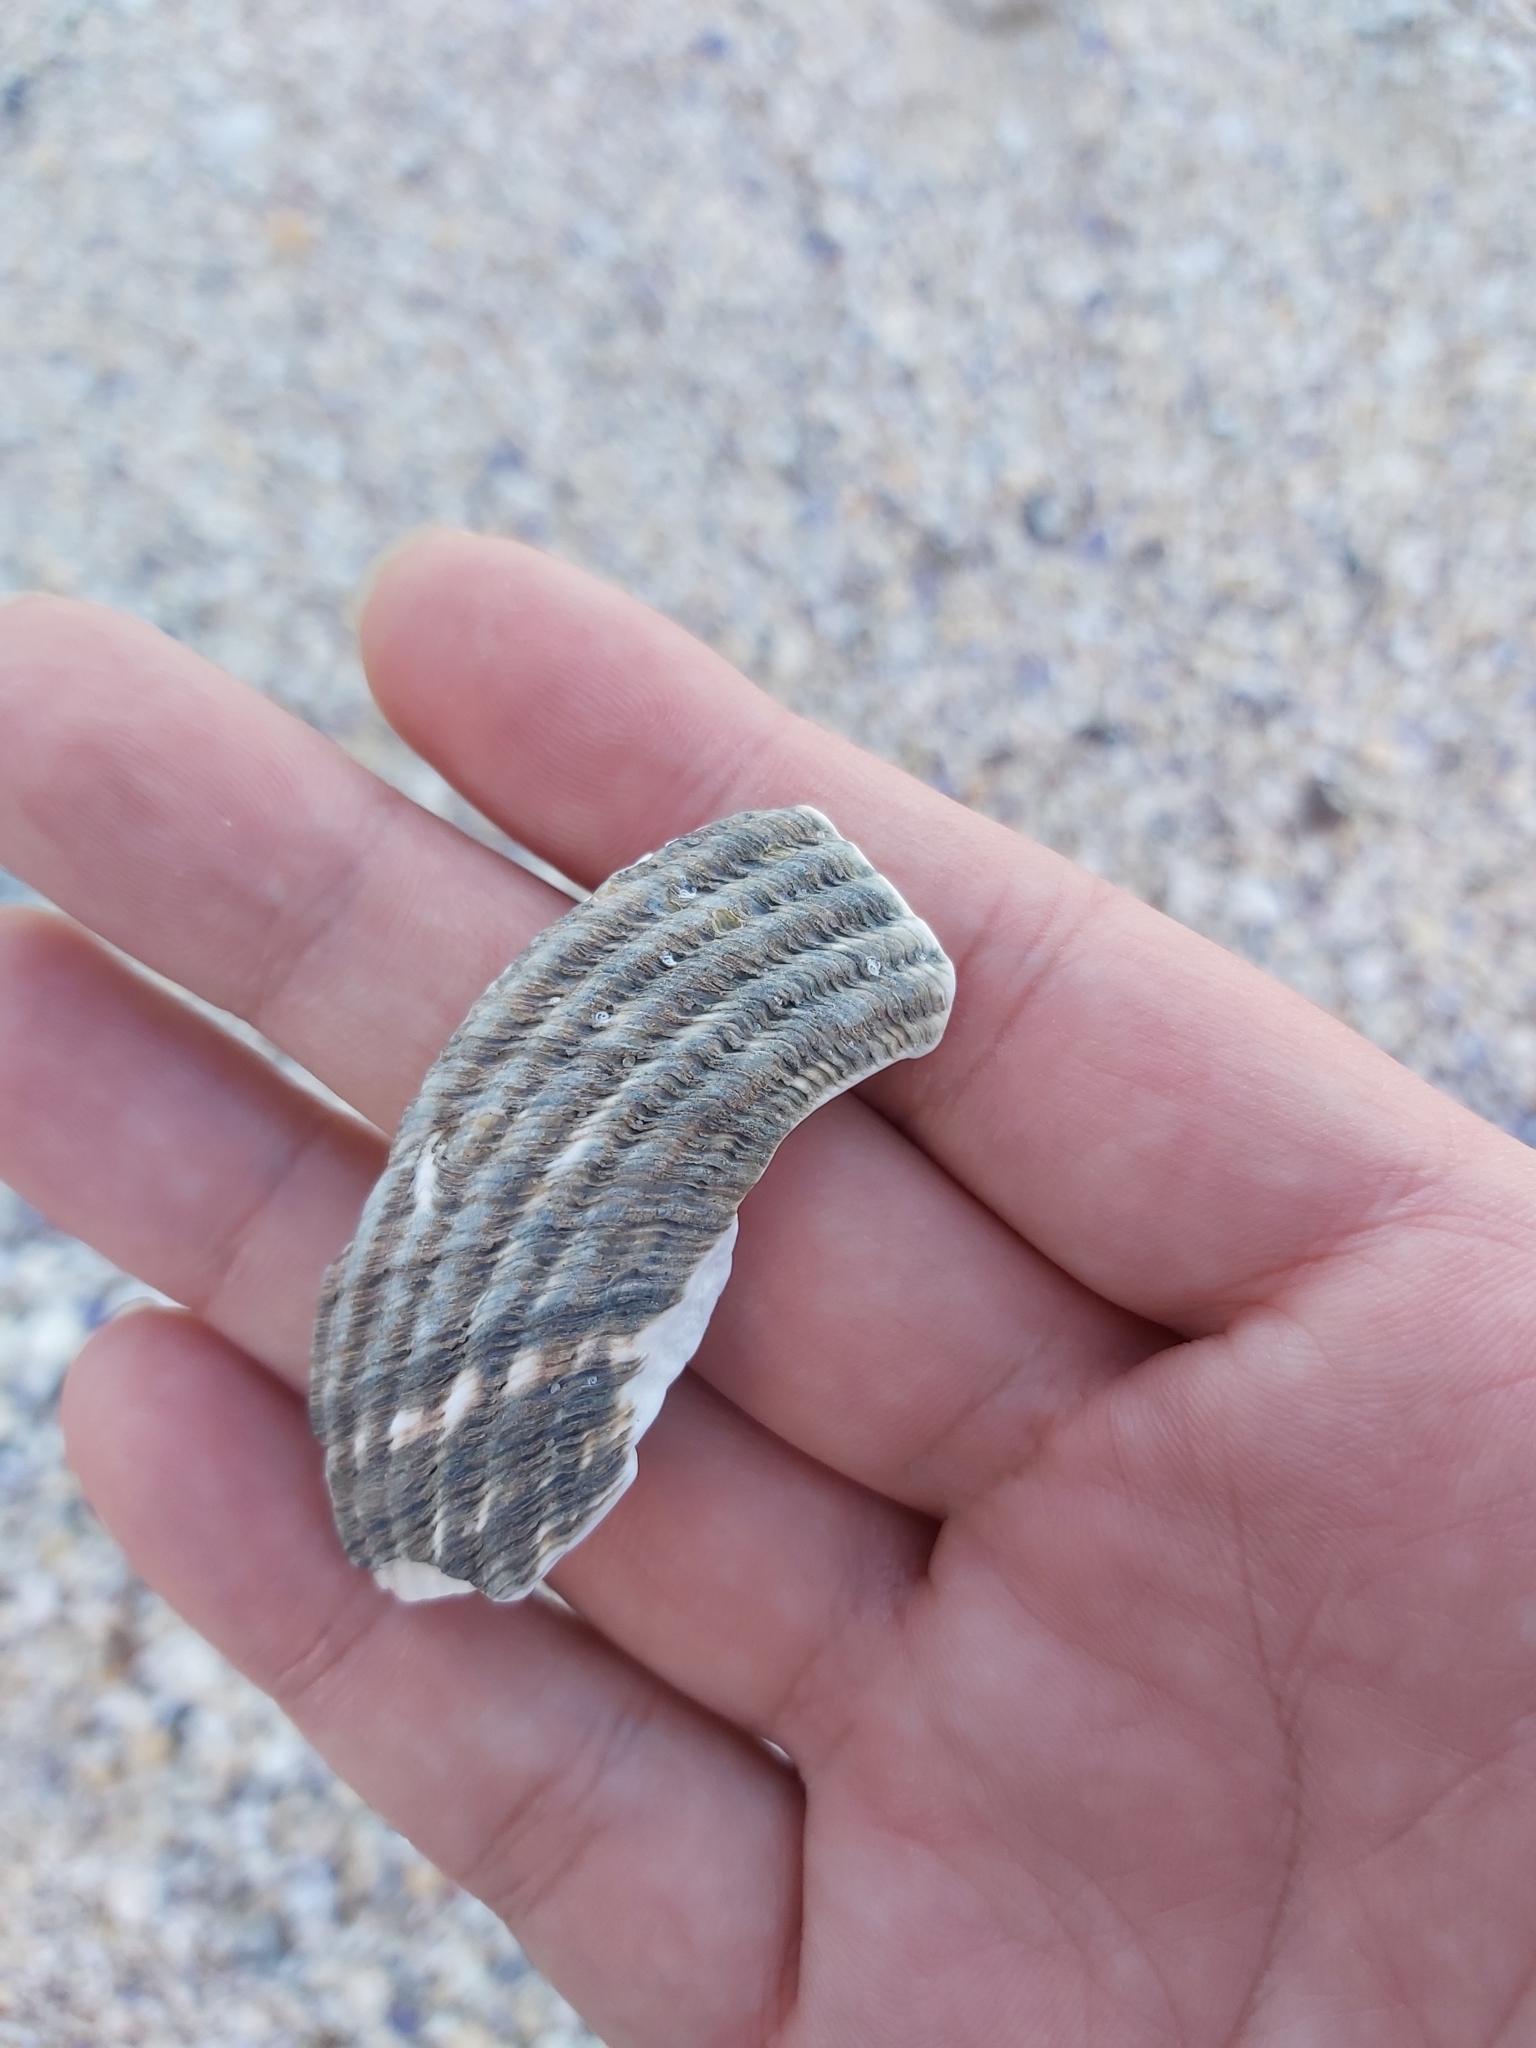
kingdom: Animalia
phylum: Mollusca
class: Gastropoda
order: Trochida
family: Turbinidae
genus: Lunella
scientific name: Lunella torquata
